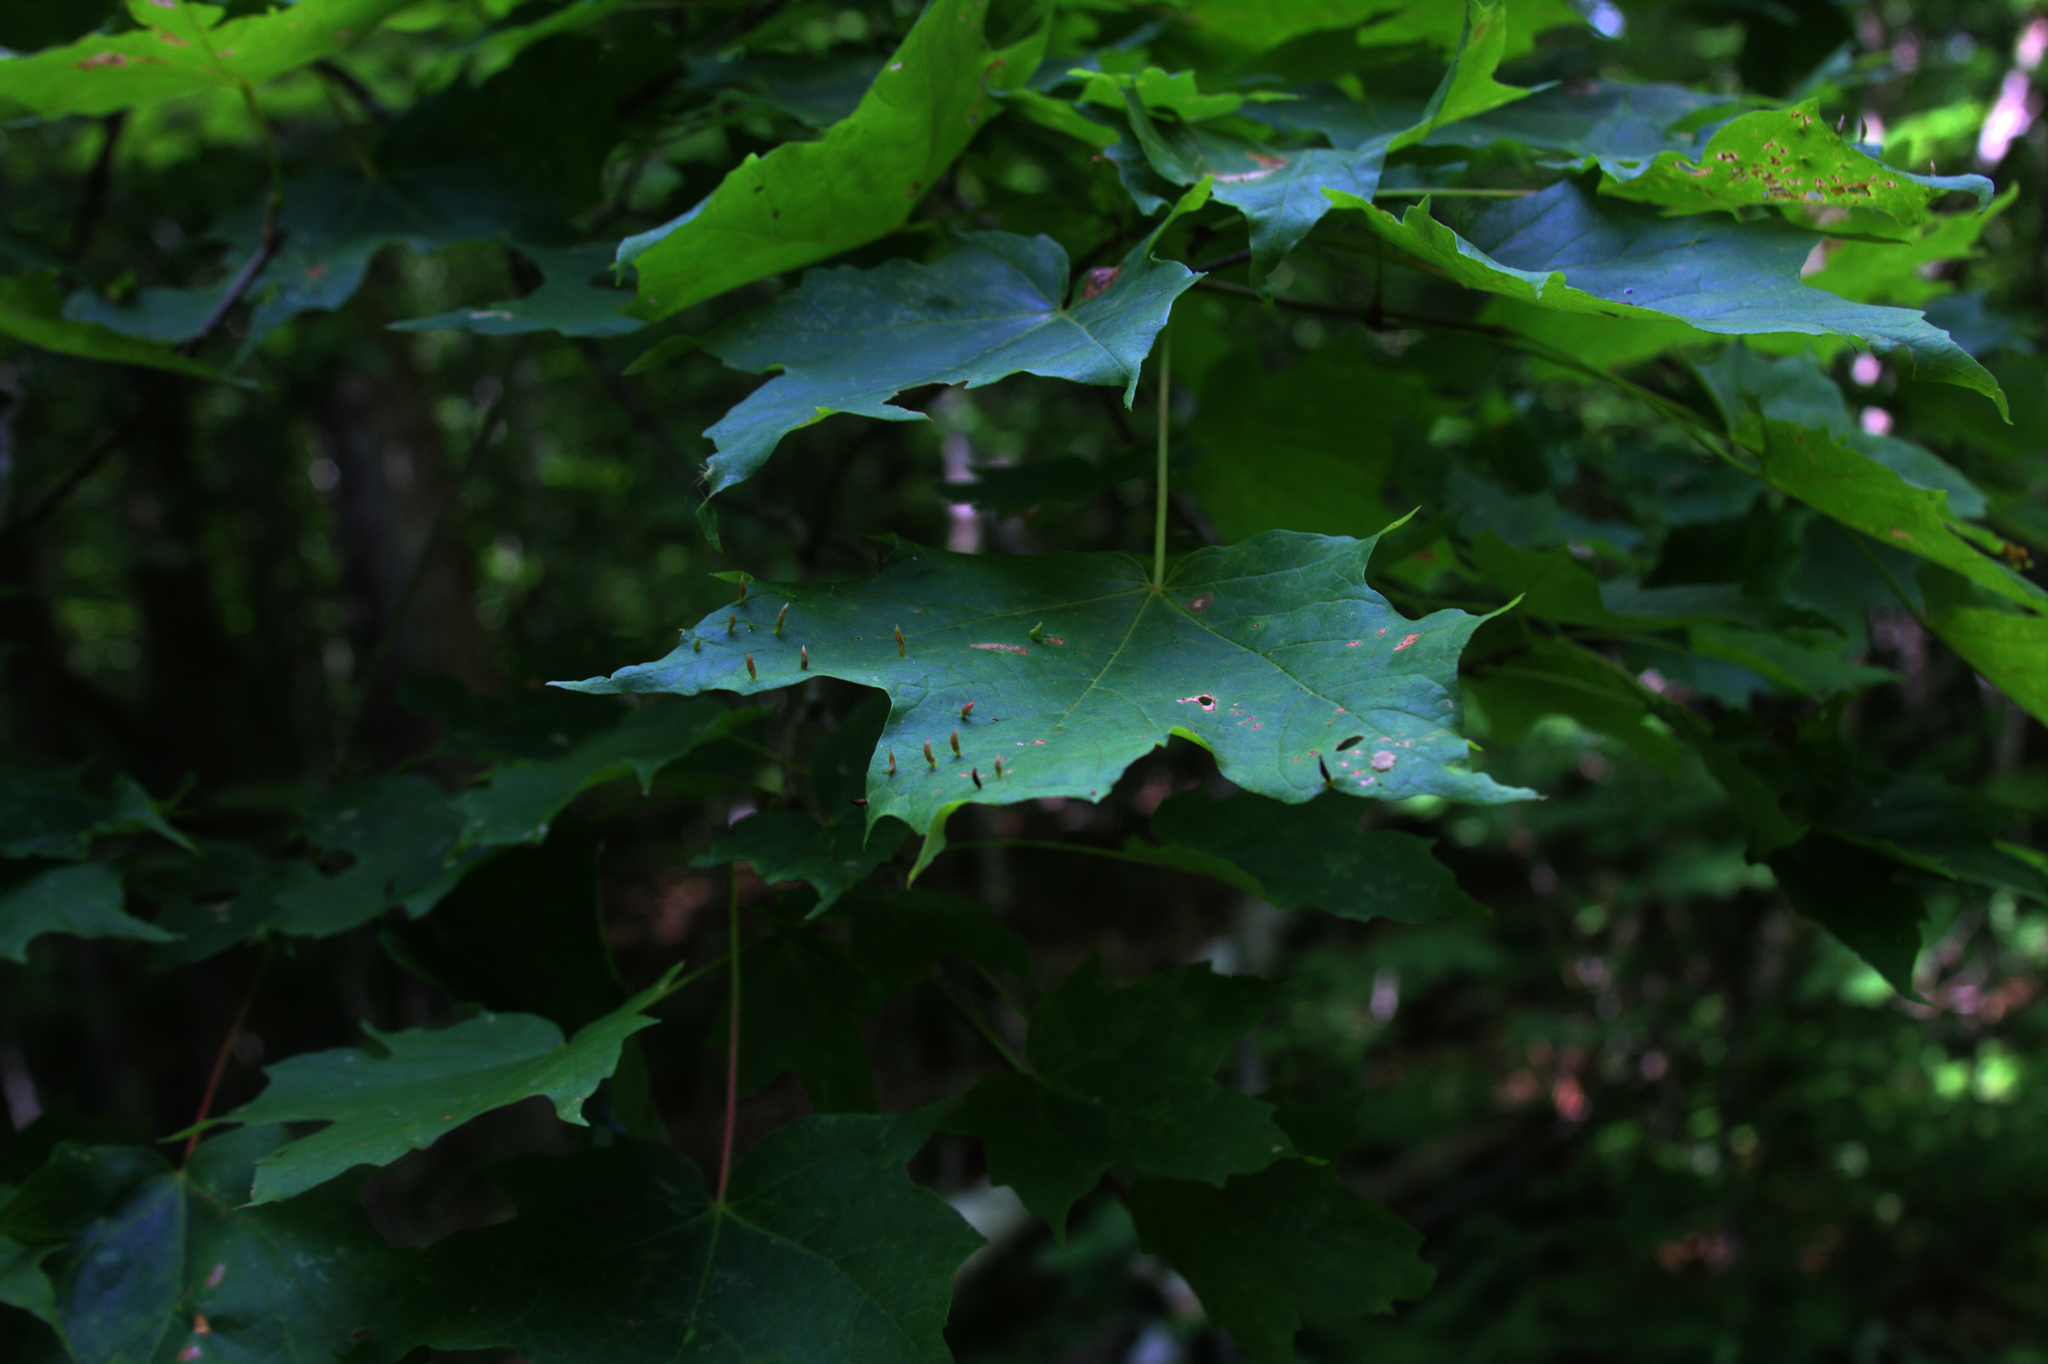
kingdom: Animalia
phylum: Arthropoda
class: Arachnida
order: Trombidiformes
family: Eriophyidae
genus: Vasates
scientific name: Vasates aceriscrumena
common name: Maple spindle gall mite
